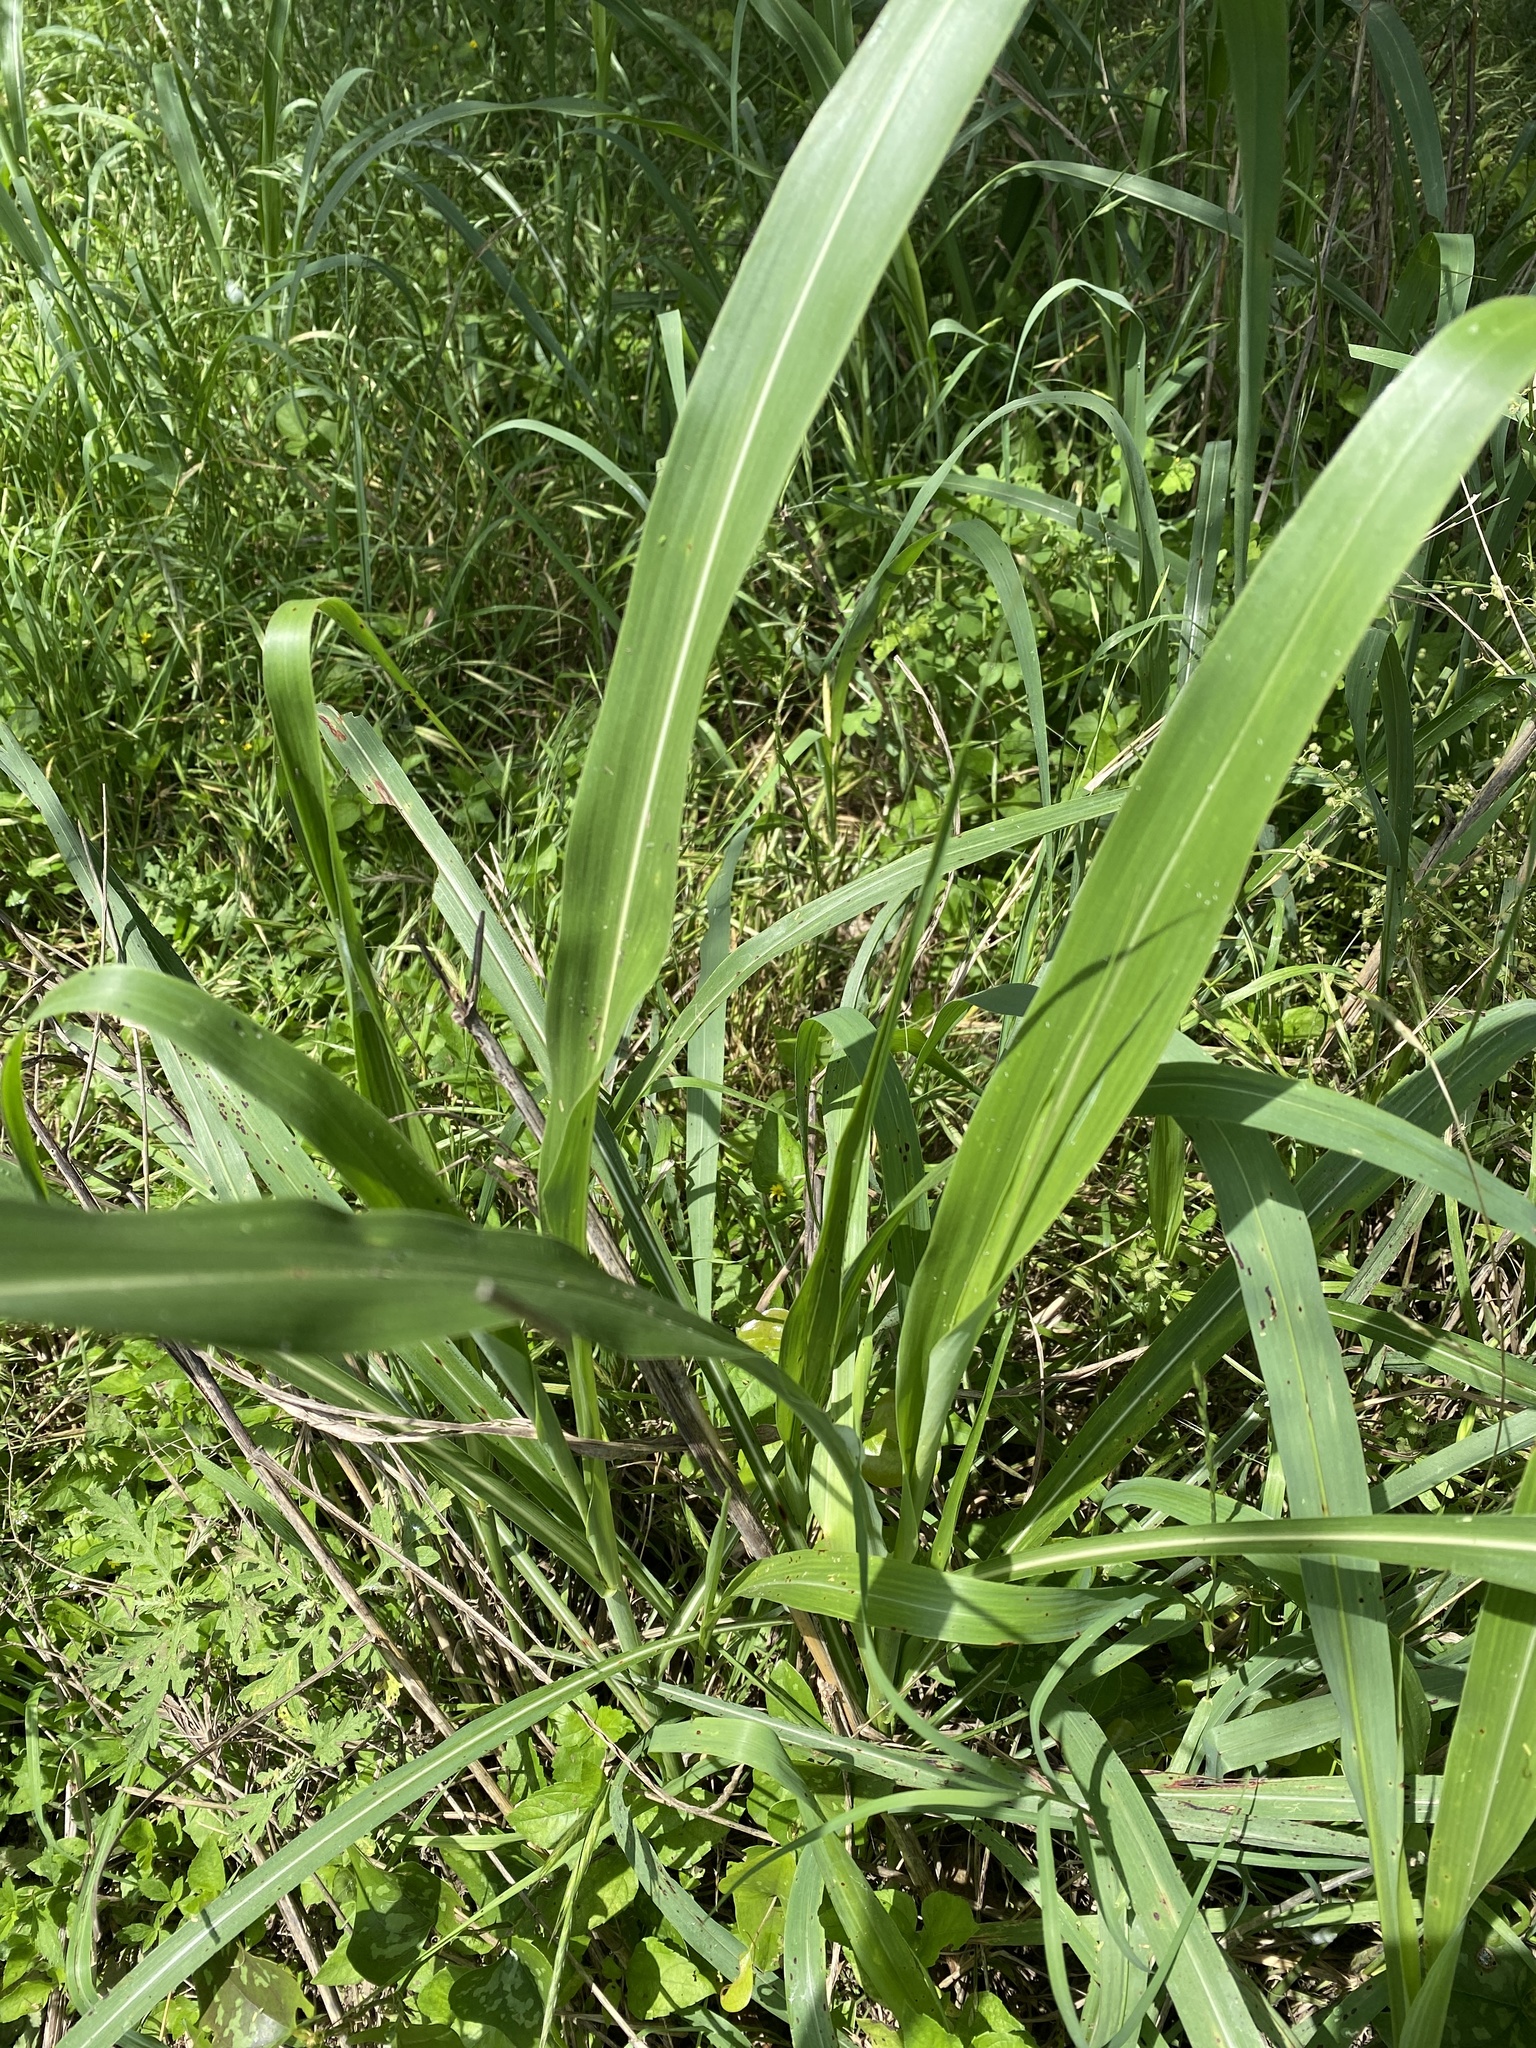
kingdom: Plantae
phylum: Tracheophyta
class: Liliopsida
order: Poales
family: Poaceae
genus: Sorghum
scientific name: Sorghum halepense
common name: Johnson-grass
